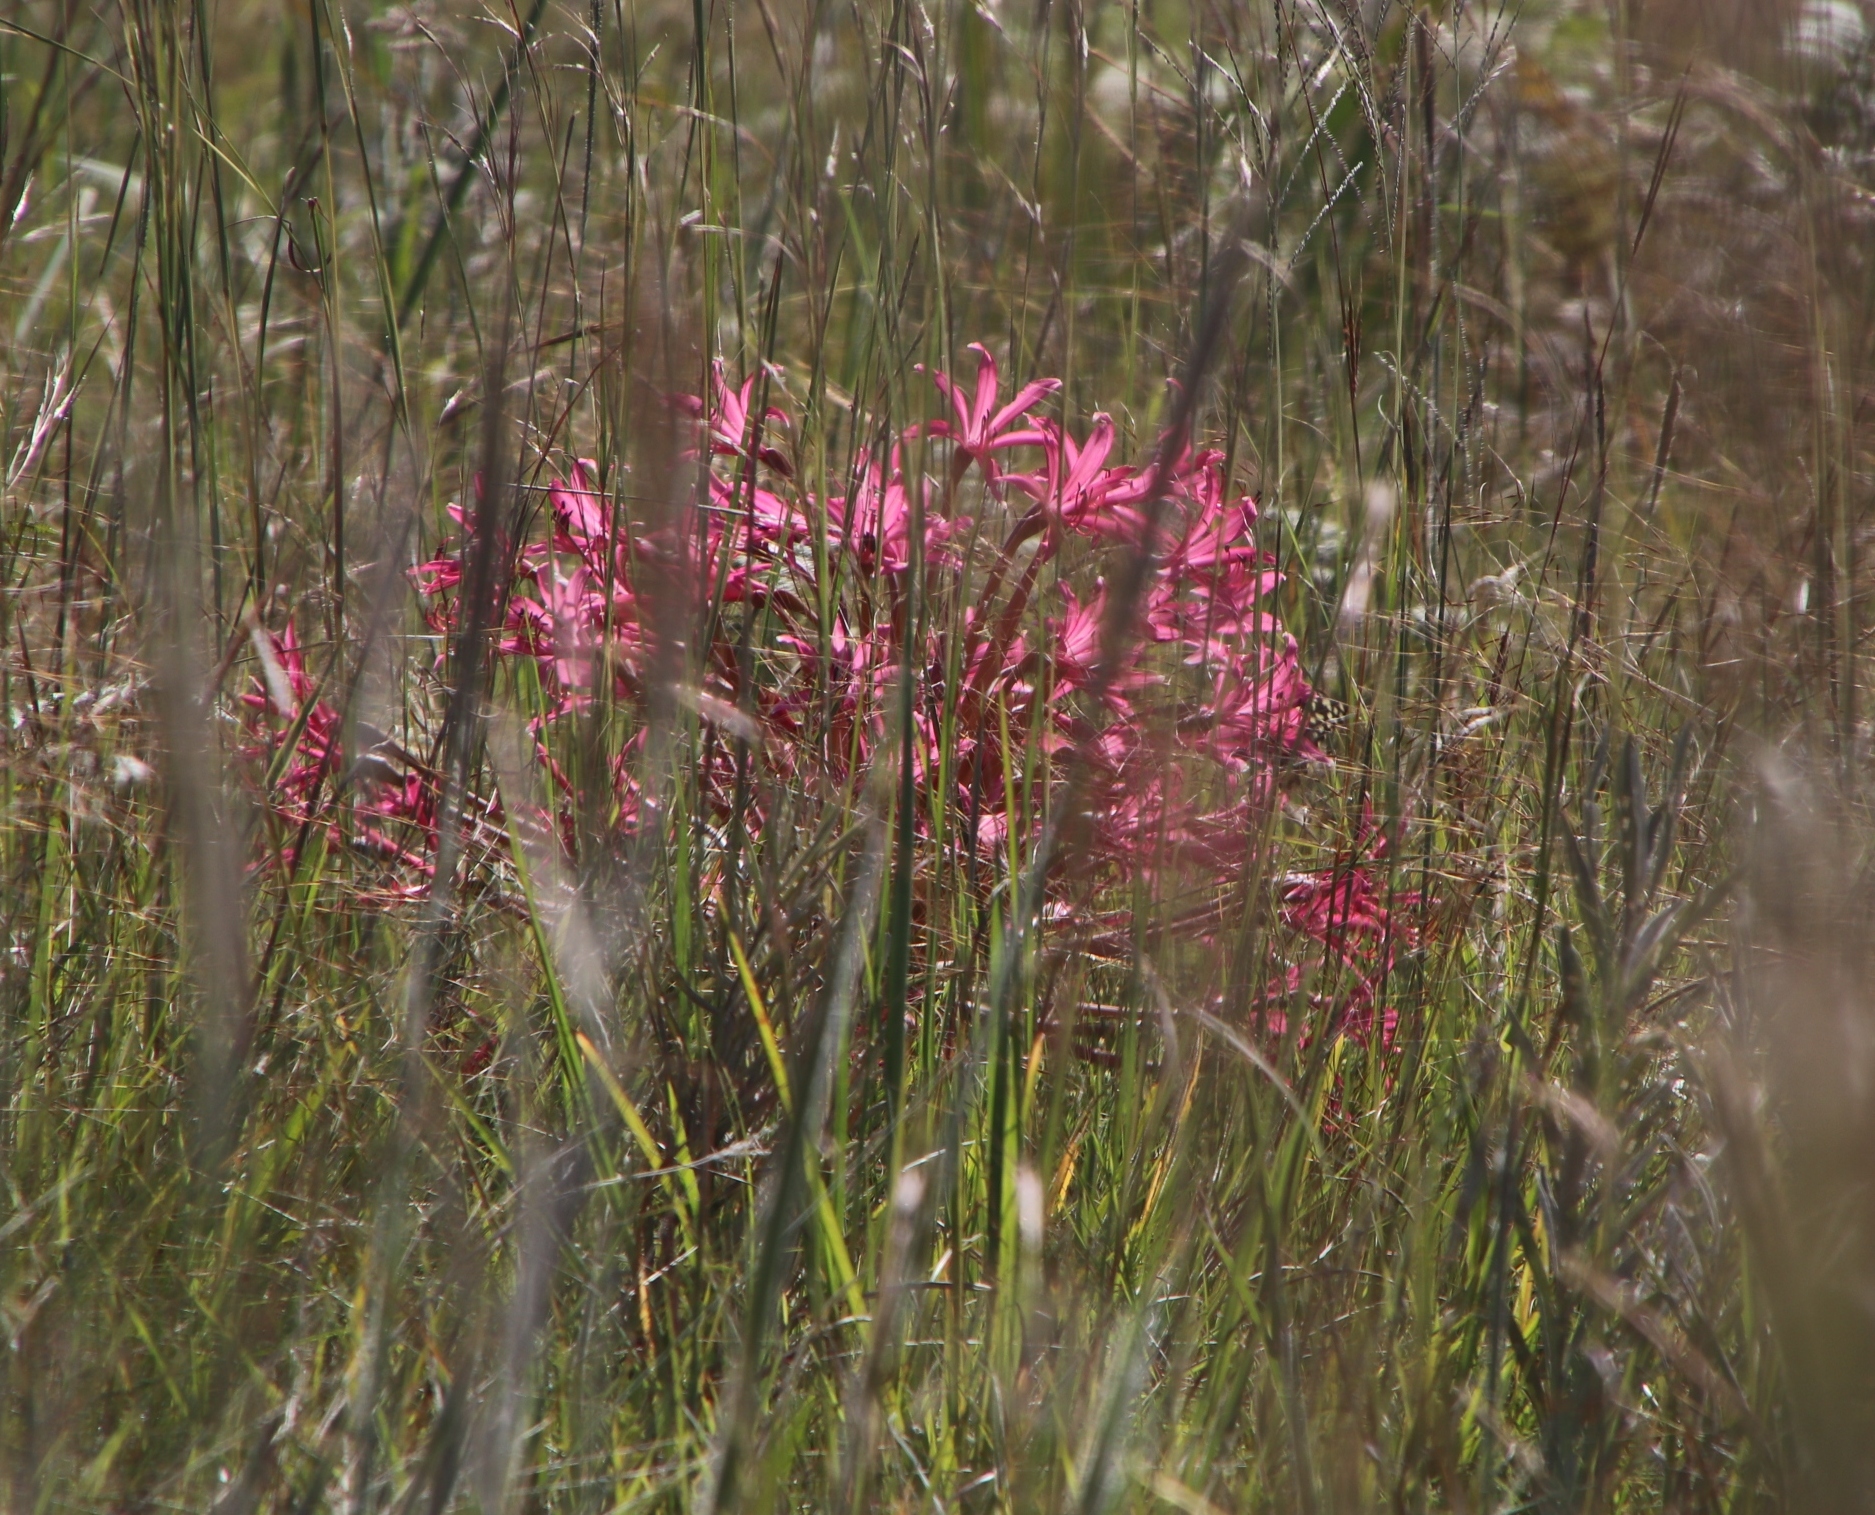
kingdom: Plantae
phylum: Tracheophyta
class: Liliopsida
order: Asparagales
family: Amaryllidaceae
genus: Brunsvigia
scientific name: Brunsvigia radulosa
